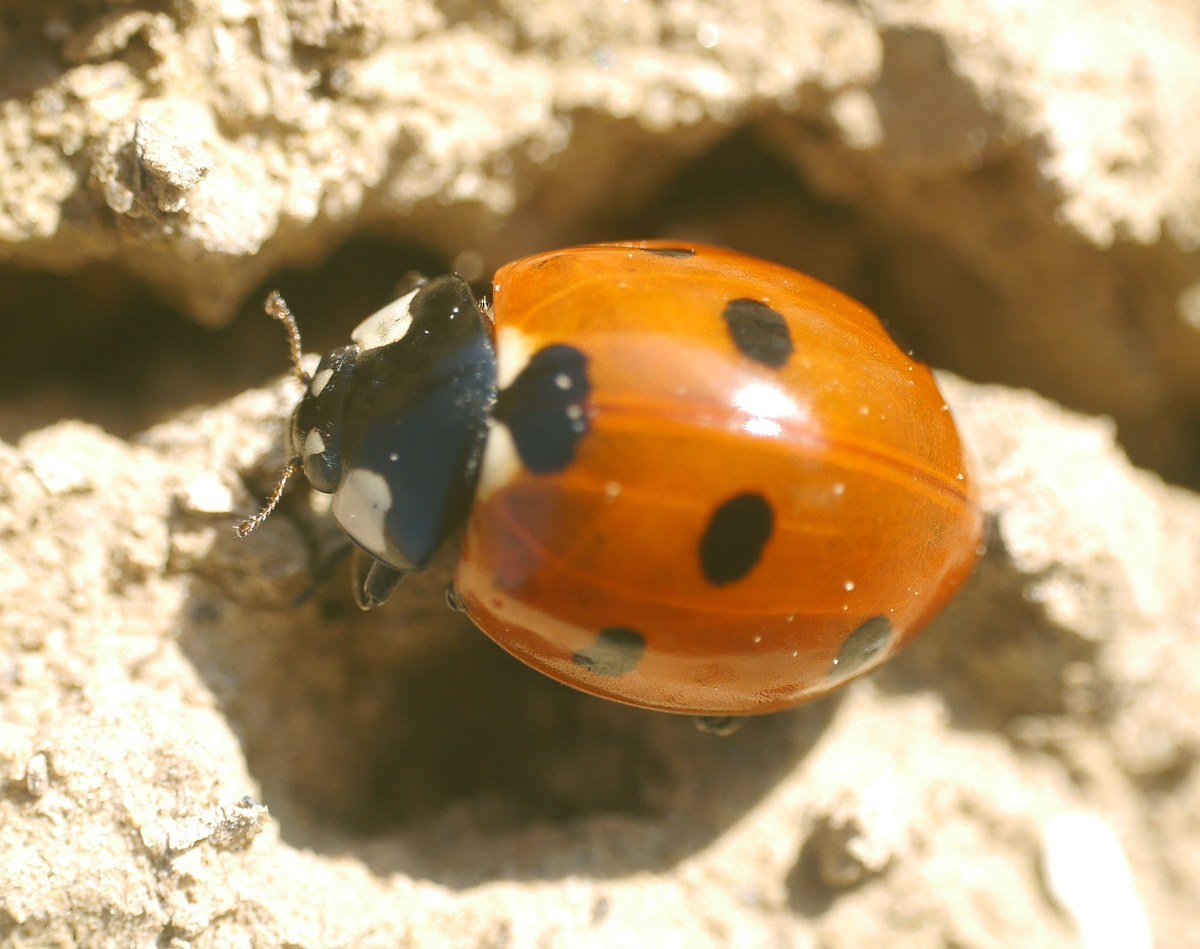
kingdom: Animalia
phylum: Arthropoda
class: Insecta
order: Coleoptera
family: Coccinellidae
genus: Coccinella
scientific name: Coccinella septempunctata
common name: Sevenspotted lady beetle
